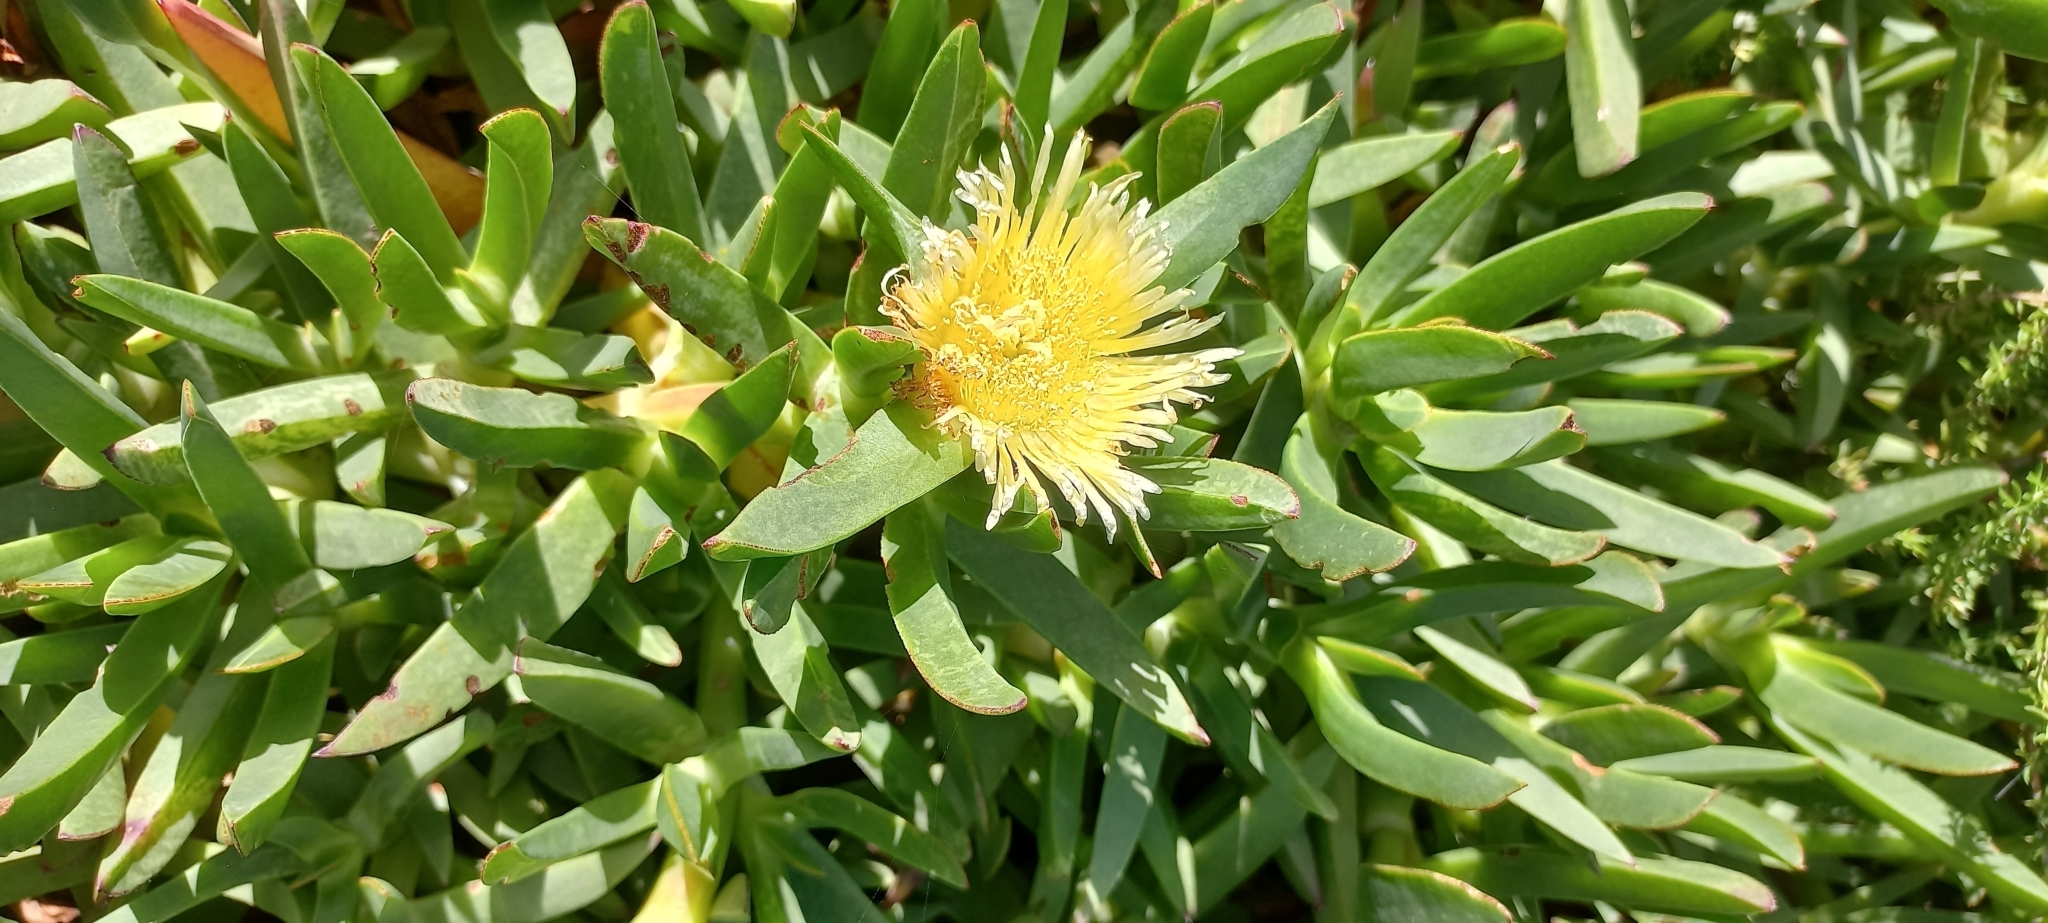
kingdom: Plantae
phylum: Tracheophyta
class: Magnoliopsida
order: Caryophyllales
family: Aizoaceae
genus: Carpobrotus
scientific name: Carpobrotus edulis
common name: Hottentot-fig
